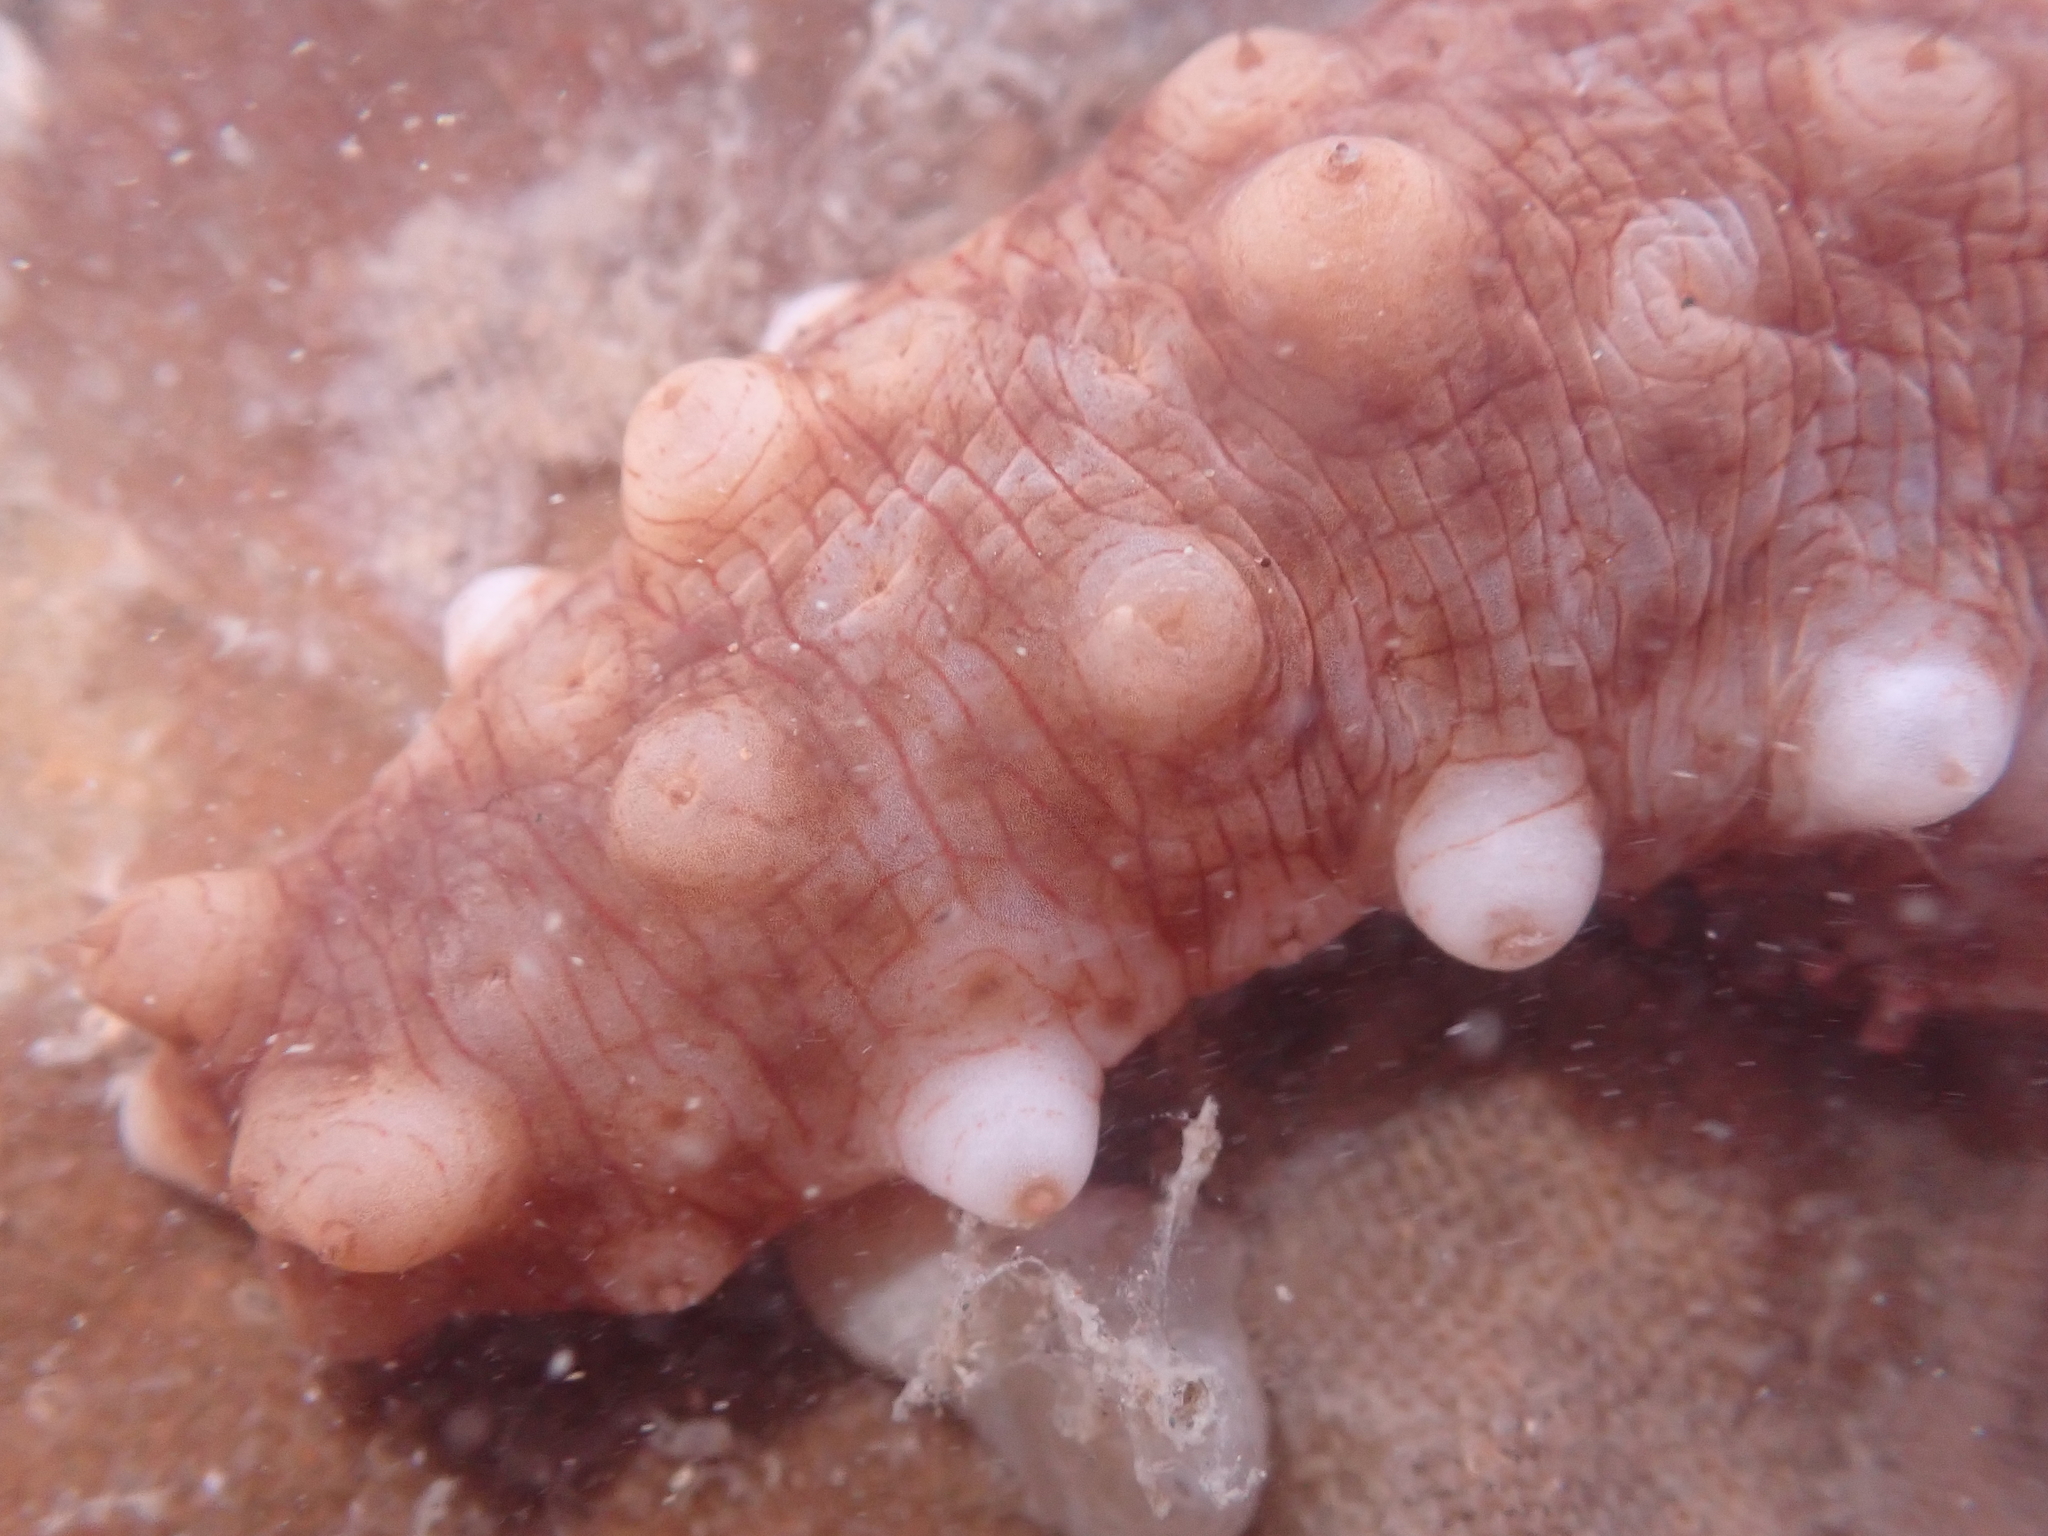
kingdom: Animalia
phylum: Echinodermata
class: Holothuroidea
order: Synallactida
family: Stichopodidae
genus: Australostichopus
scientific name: Australostichopus mollis
